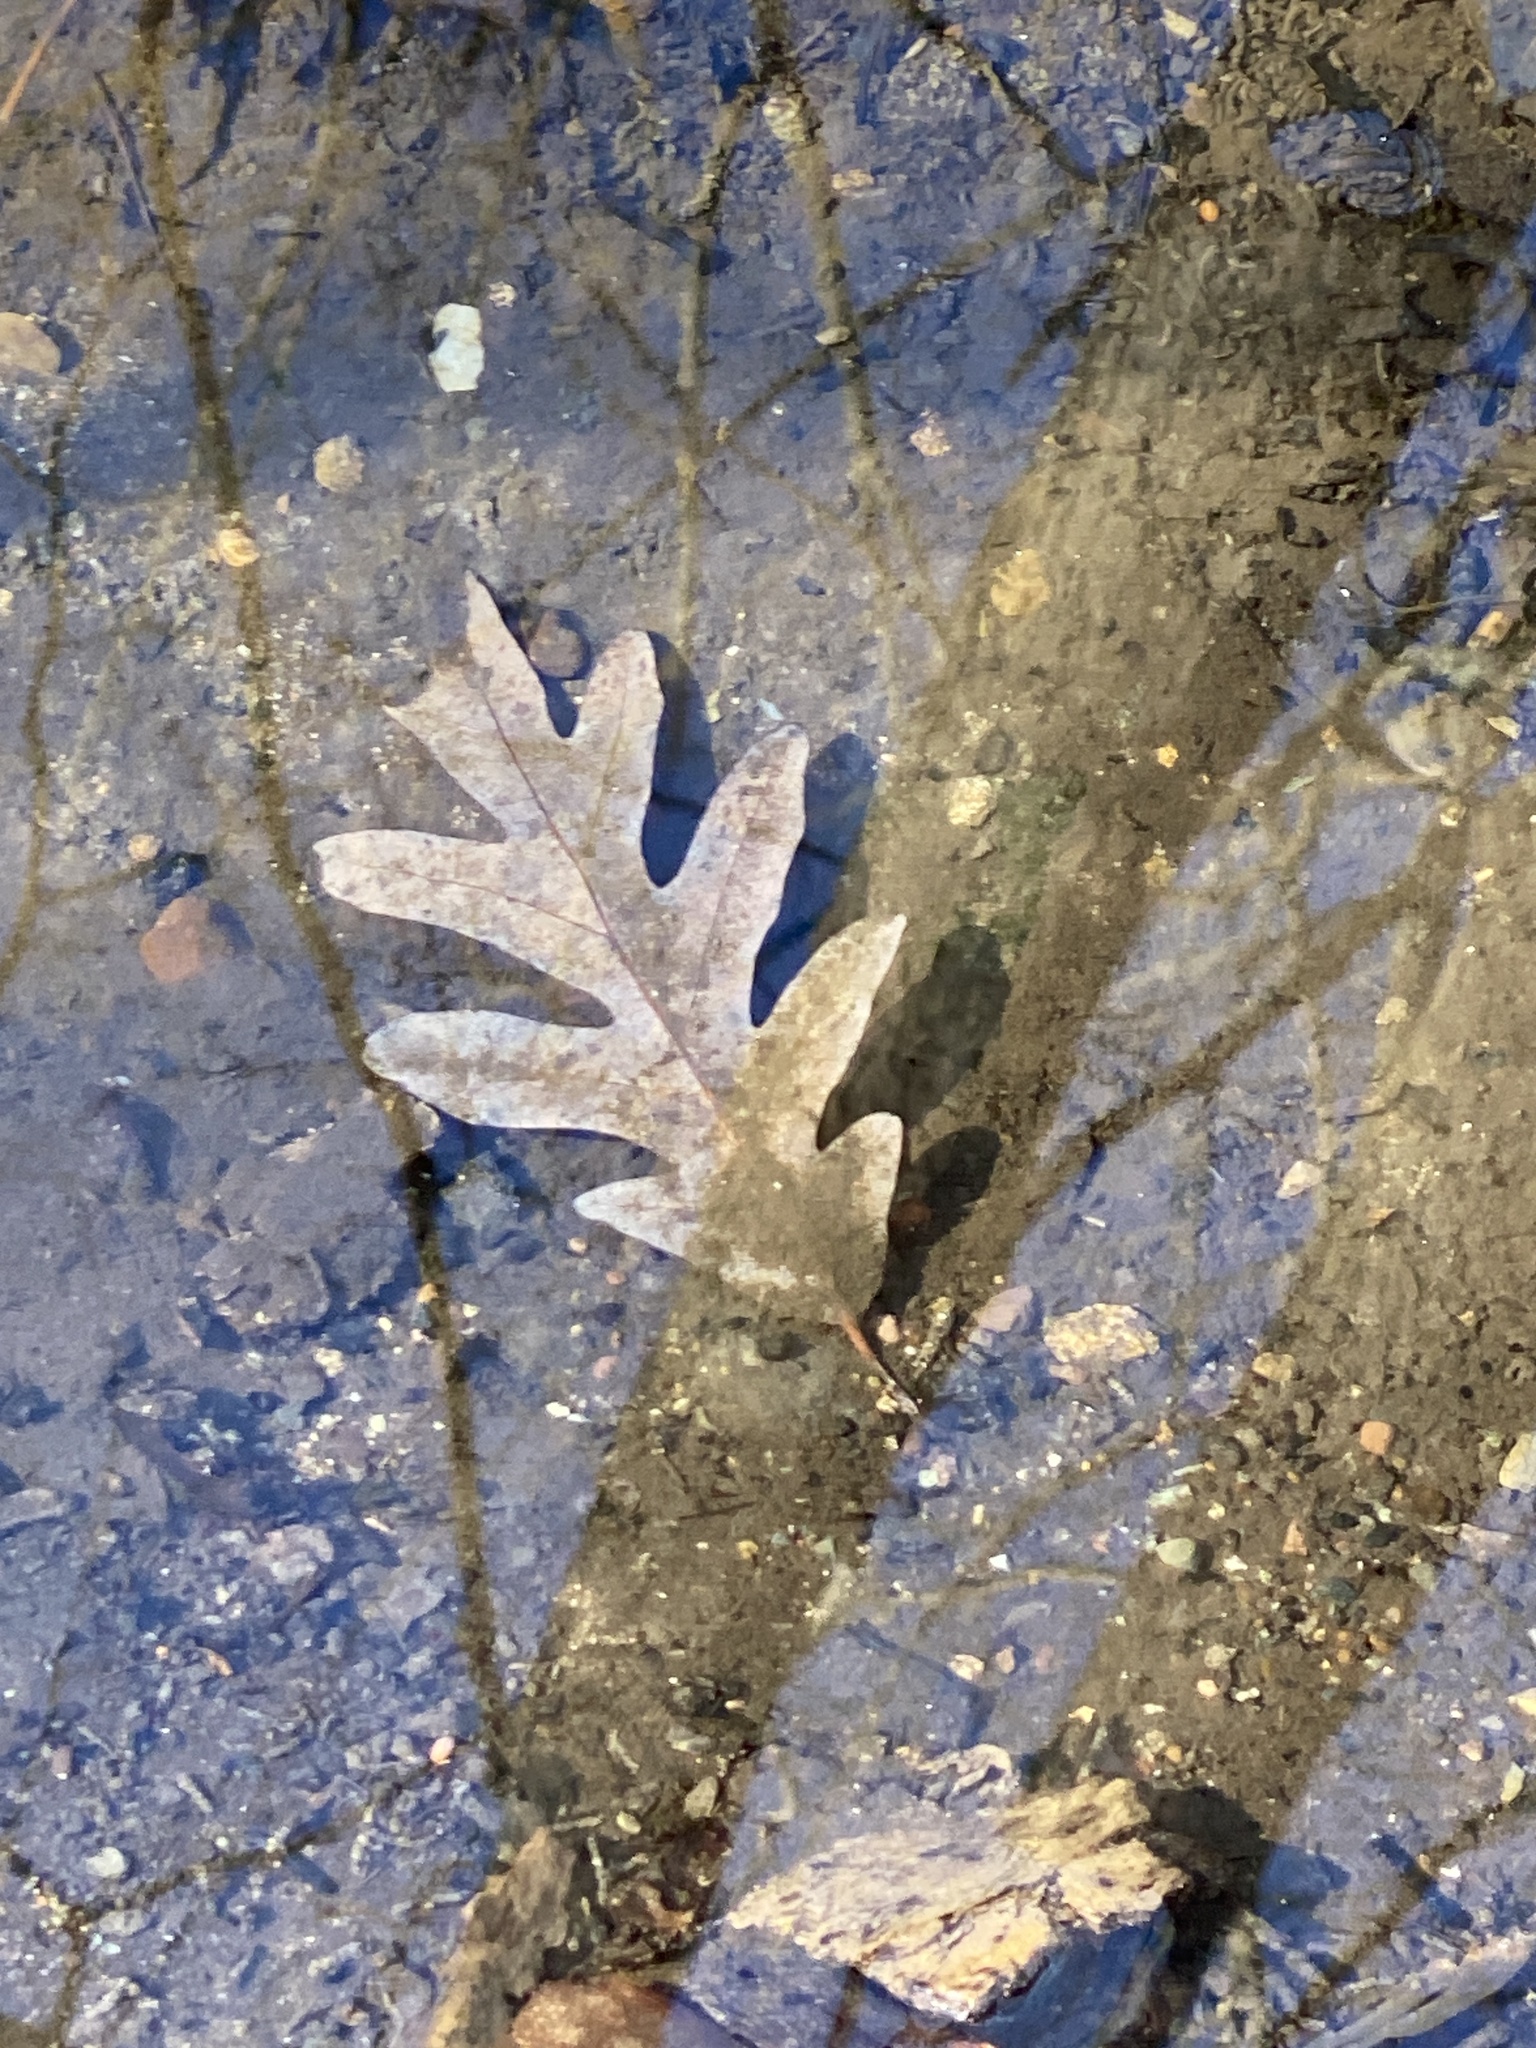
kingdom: Plantae
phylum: Tracheophyta
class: Magnoliopsida
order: Fagales
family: Fagaceae
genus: Quercus
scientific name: Quercus alba
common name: White oak
